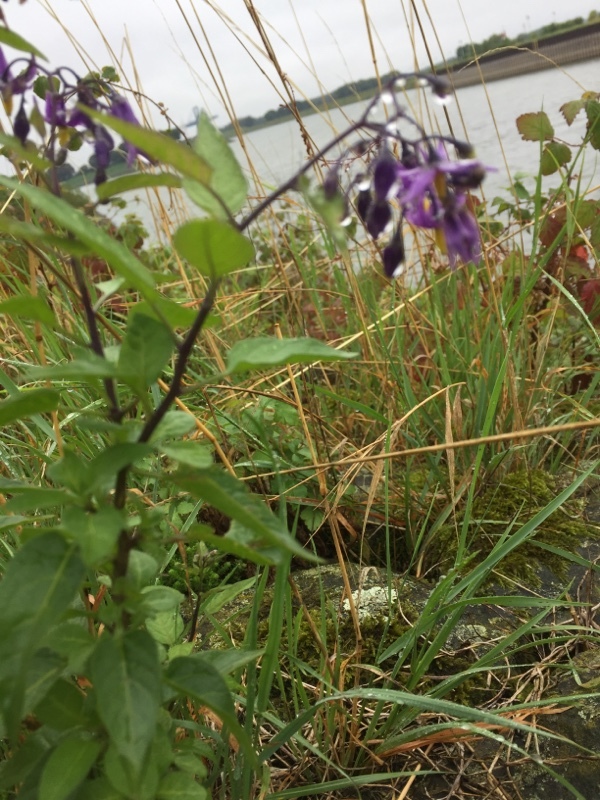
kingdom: Plantae
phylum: Tracheophyta
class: Magnoliopsida
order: Solanales
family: Solanaceae
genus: Solanum
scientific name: Solanum dulcamara
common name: Climbing nightshade
